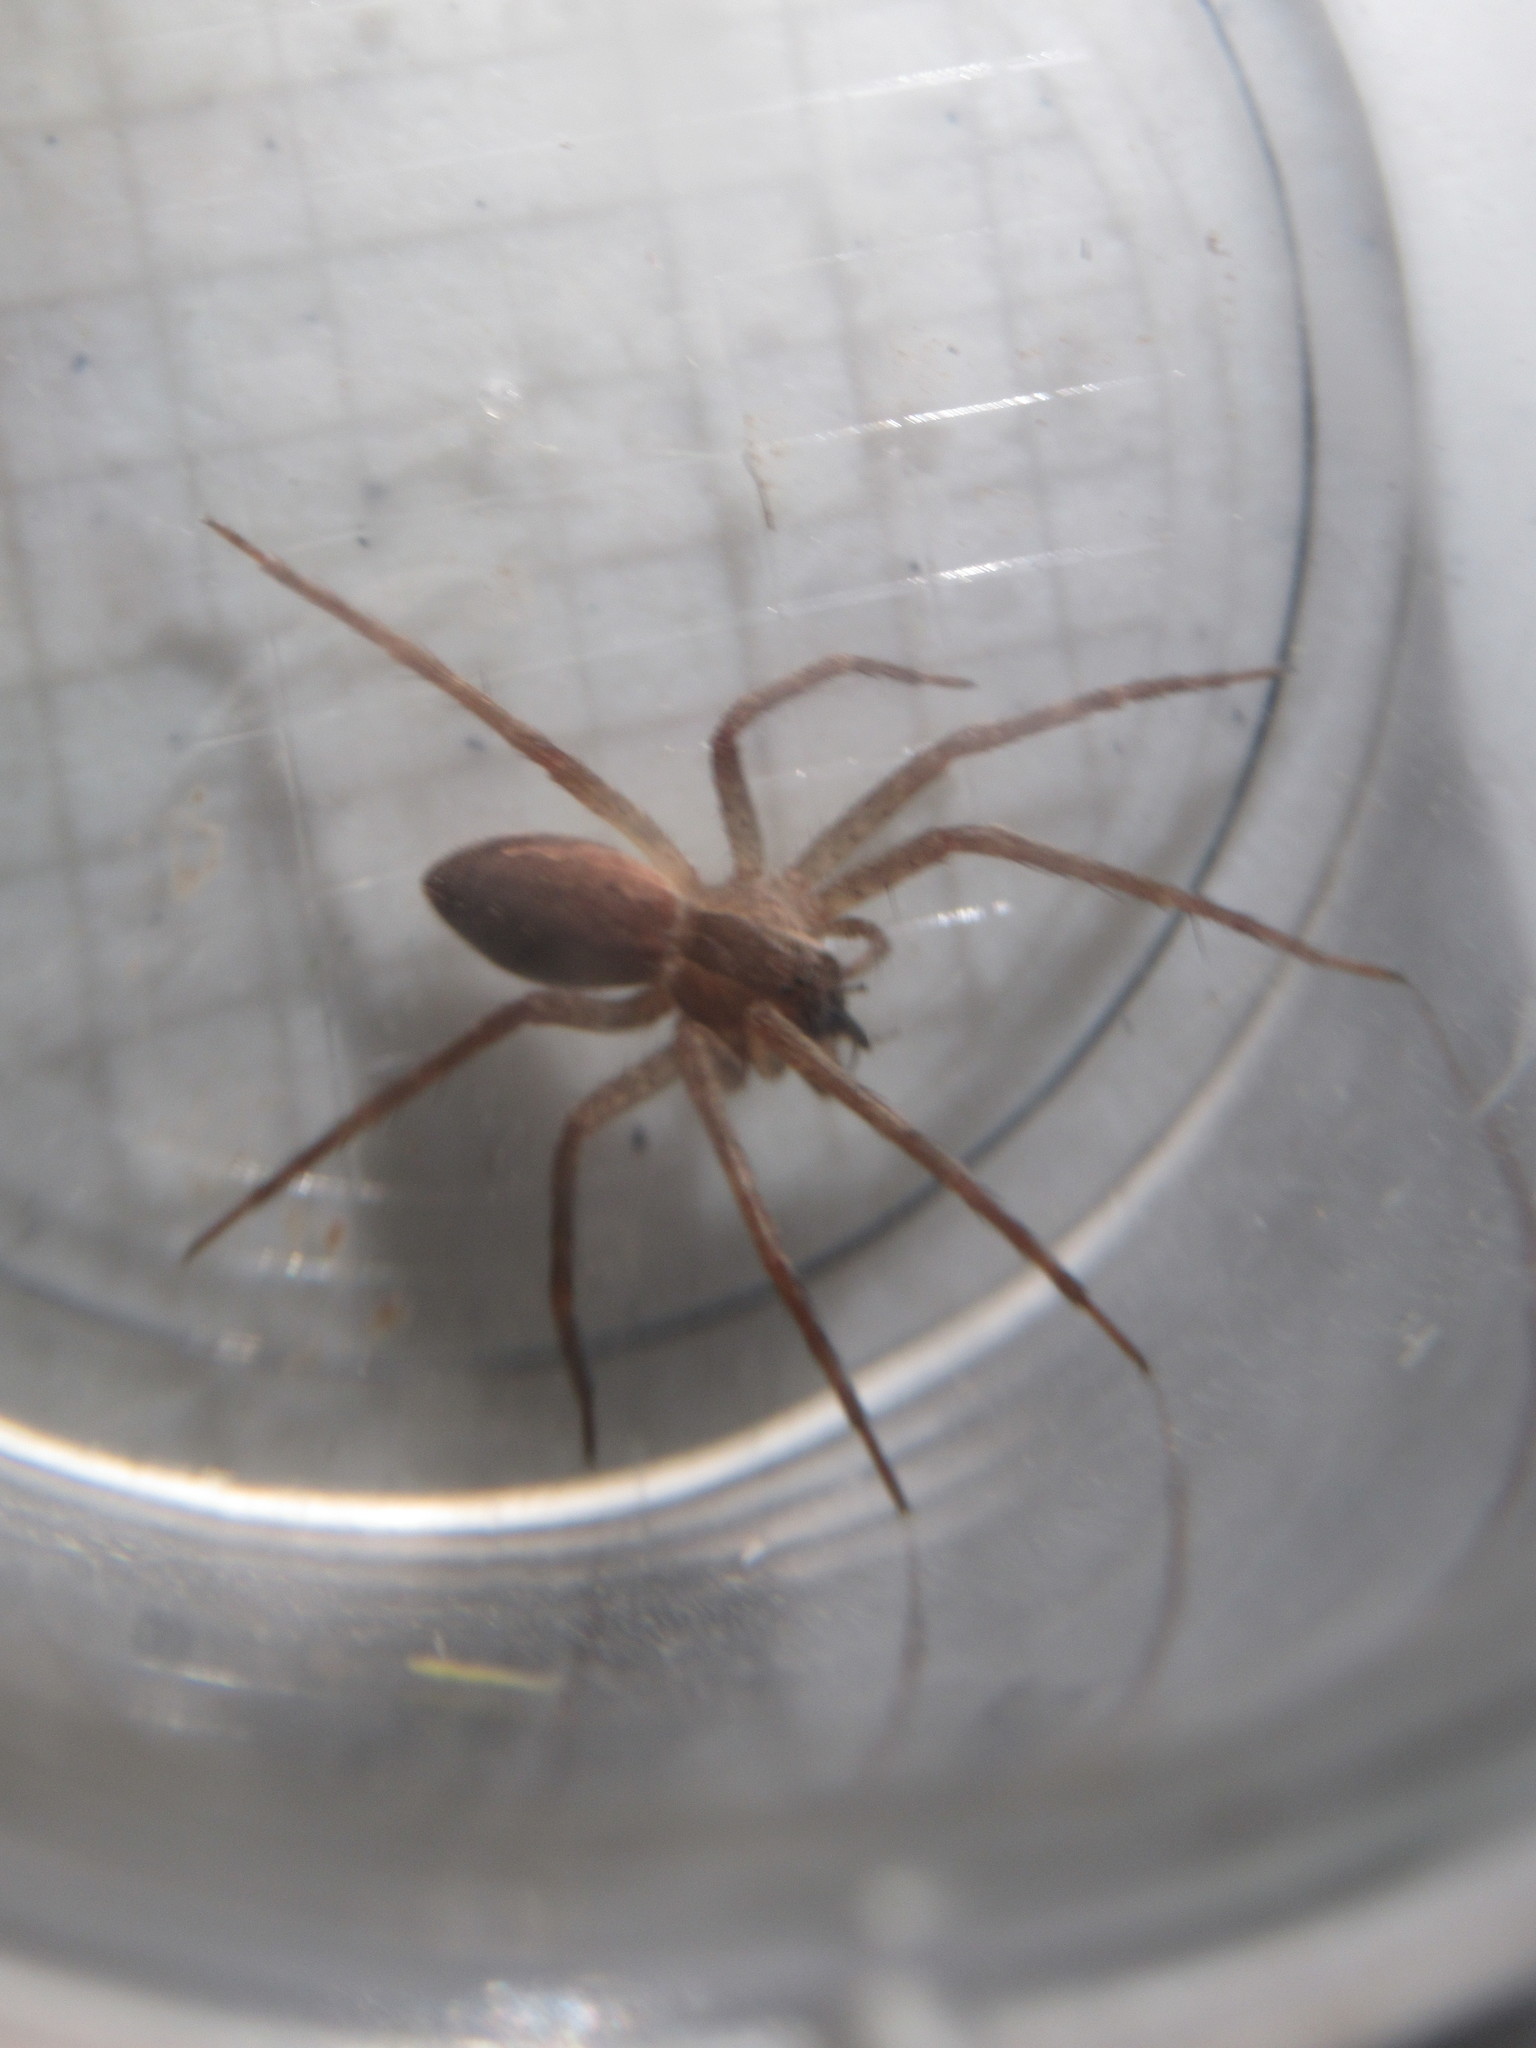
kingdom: Animalia
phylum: Arthropoda
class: Arachnida
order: Araneae
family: Pisauridae
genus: Pisaurina
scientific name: Pisaurina mira
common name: American nursery web spider
